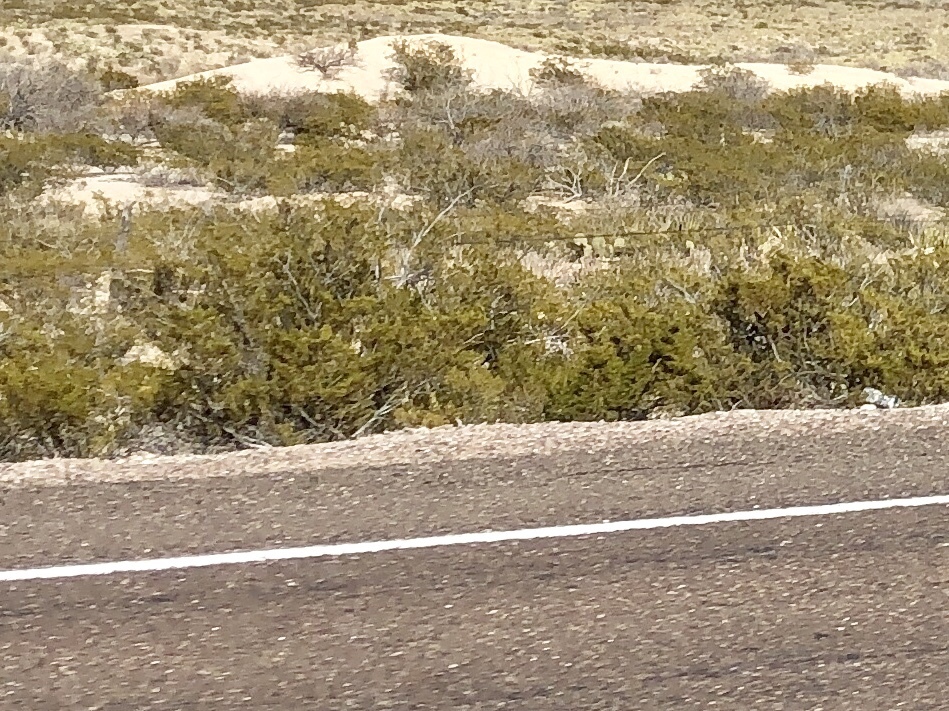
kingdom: Plantae
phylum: Tracheophyta
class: Magnoliopsida
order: Zygophyllales
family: Zygophyllaceae
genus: Larrea
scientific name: Larrea tridentata
